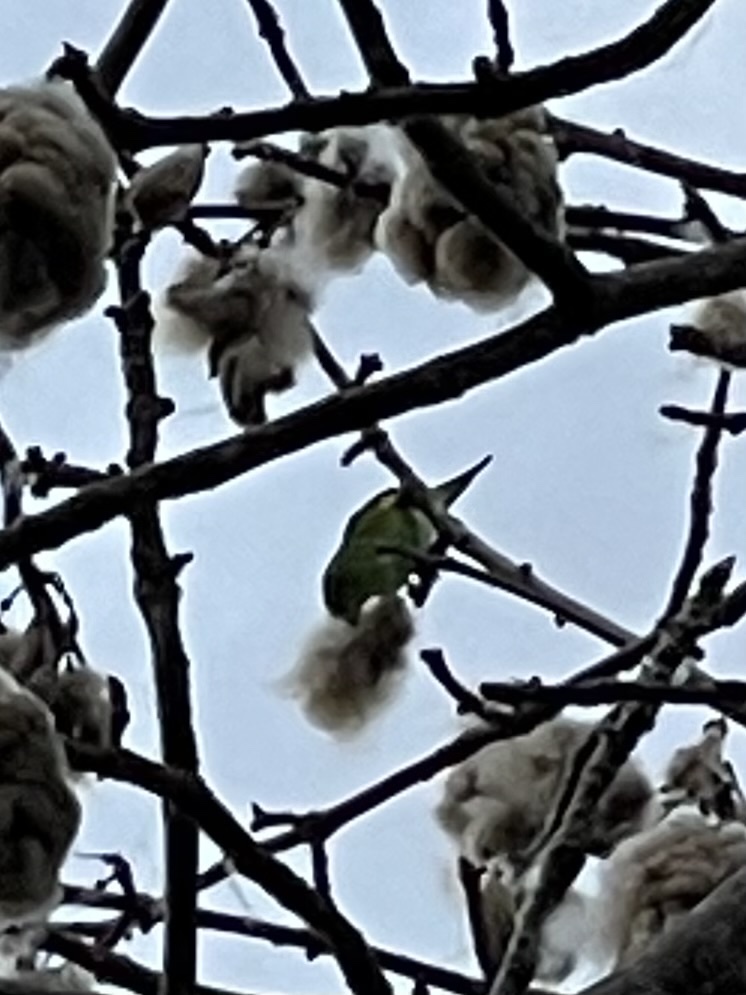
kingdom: Animalia
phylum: Chordata
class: Aves
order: Psittaciformes
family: Psittacidae
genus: Brotogeris
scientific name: Brotogeris chiriri
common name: Yellow-chevroned parakeet
